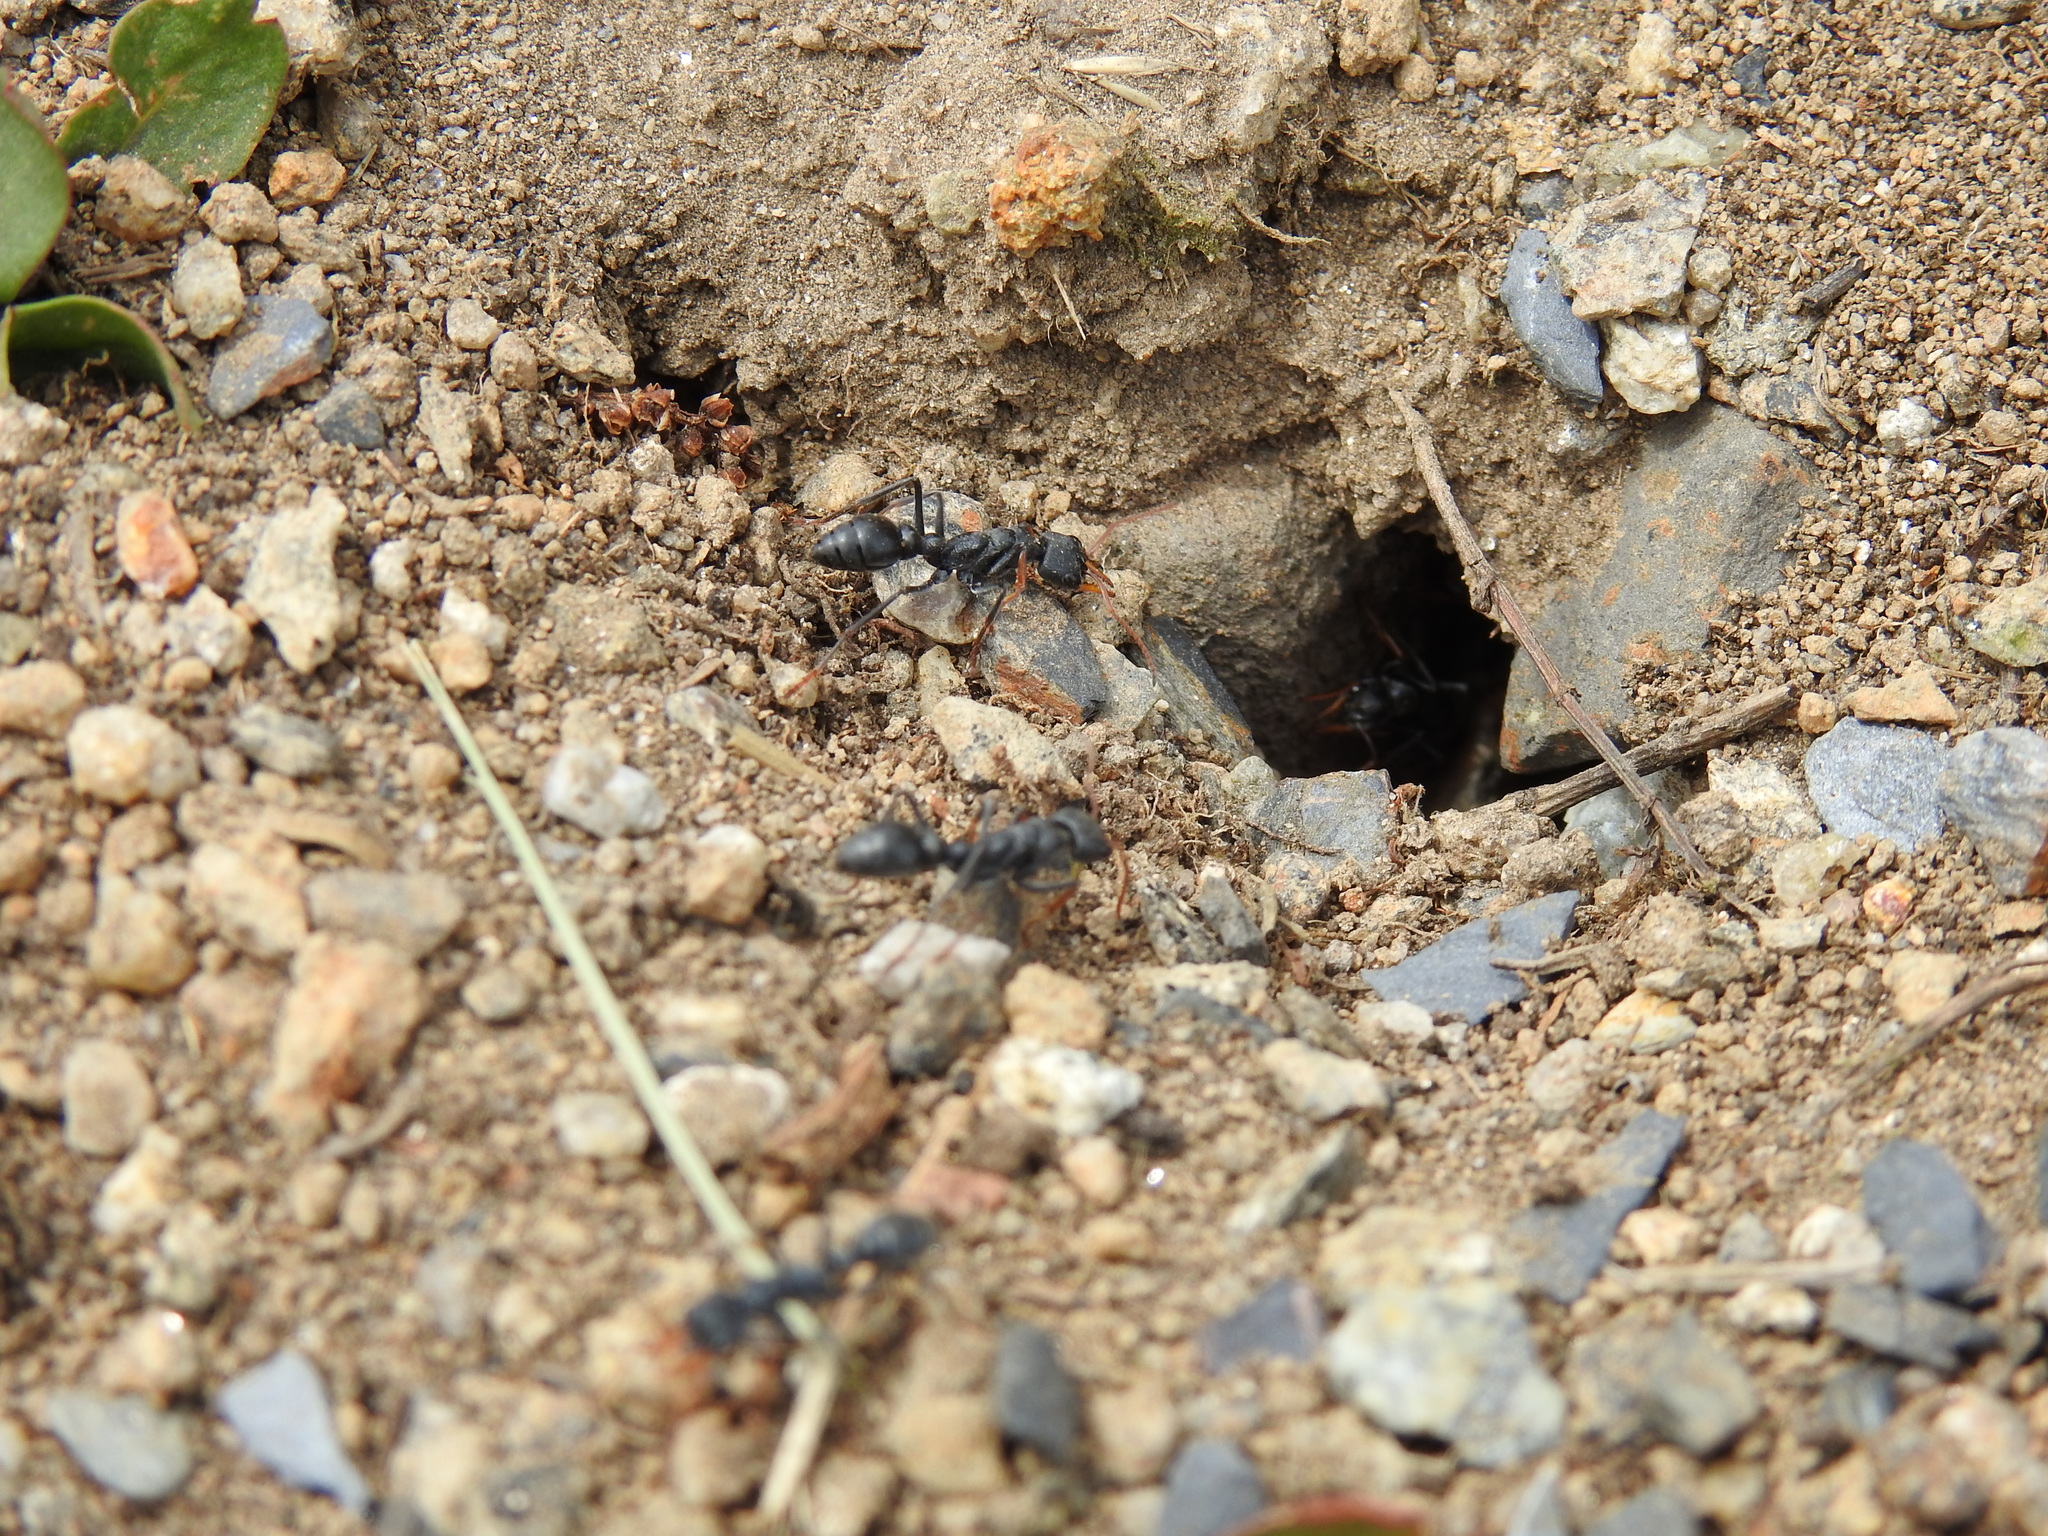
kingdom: Animalia
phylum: Arthropoda
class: Insecta
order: Hymenoptera
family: Formicidae
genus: Myrmecia
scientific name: Myrmecia haskinsorum
